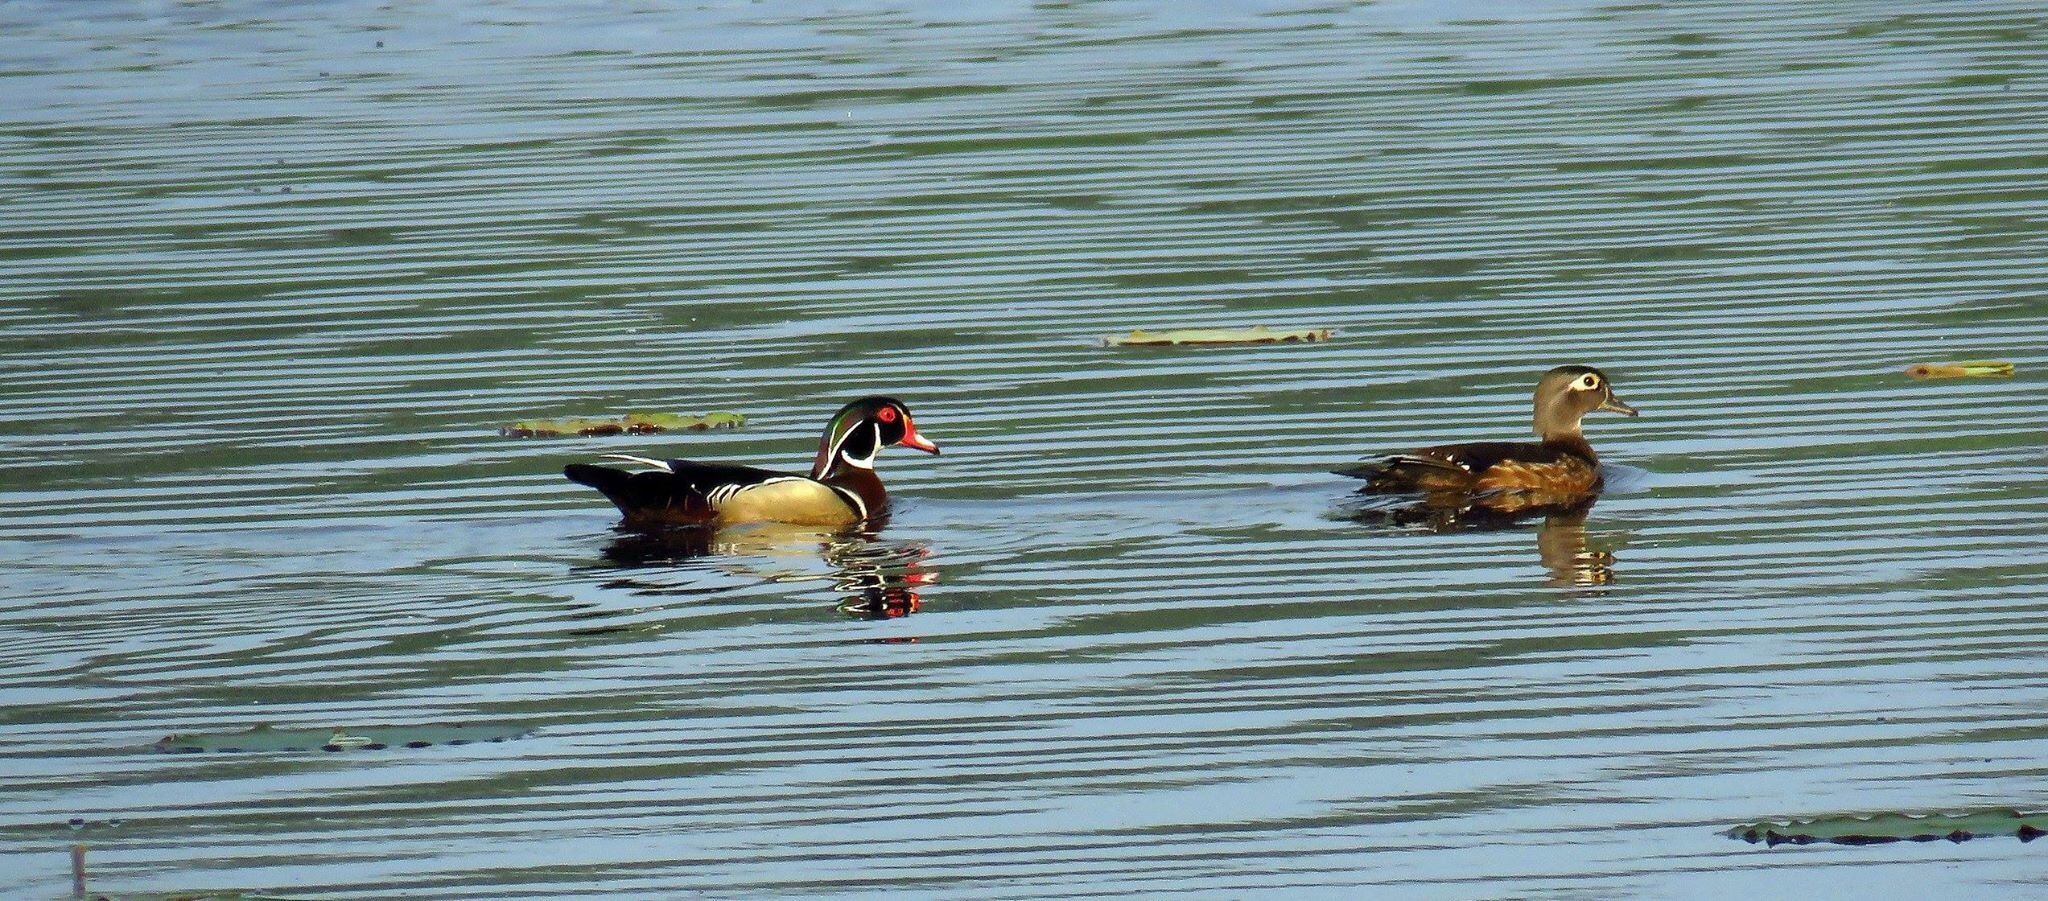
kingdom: Animalia
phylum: Chordata
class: Aves
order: Anseriformes
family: Anatidae
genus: Aix
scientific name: Aix sponsa
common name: Wood duck
